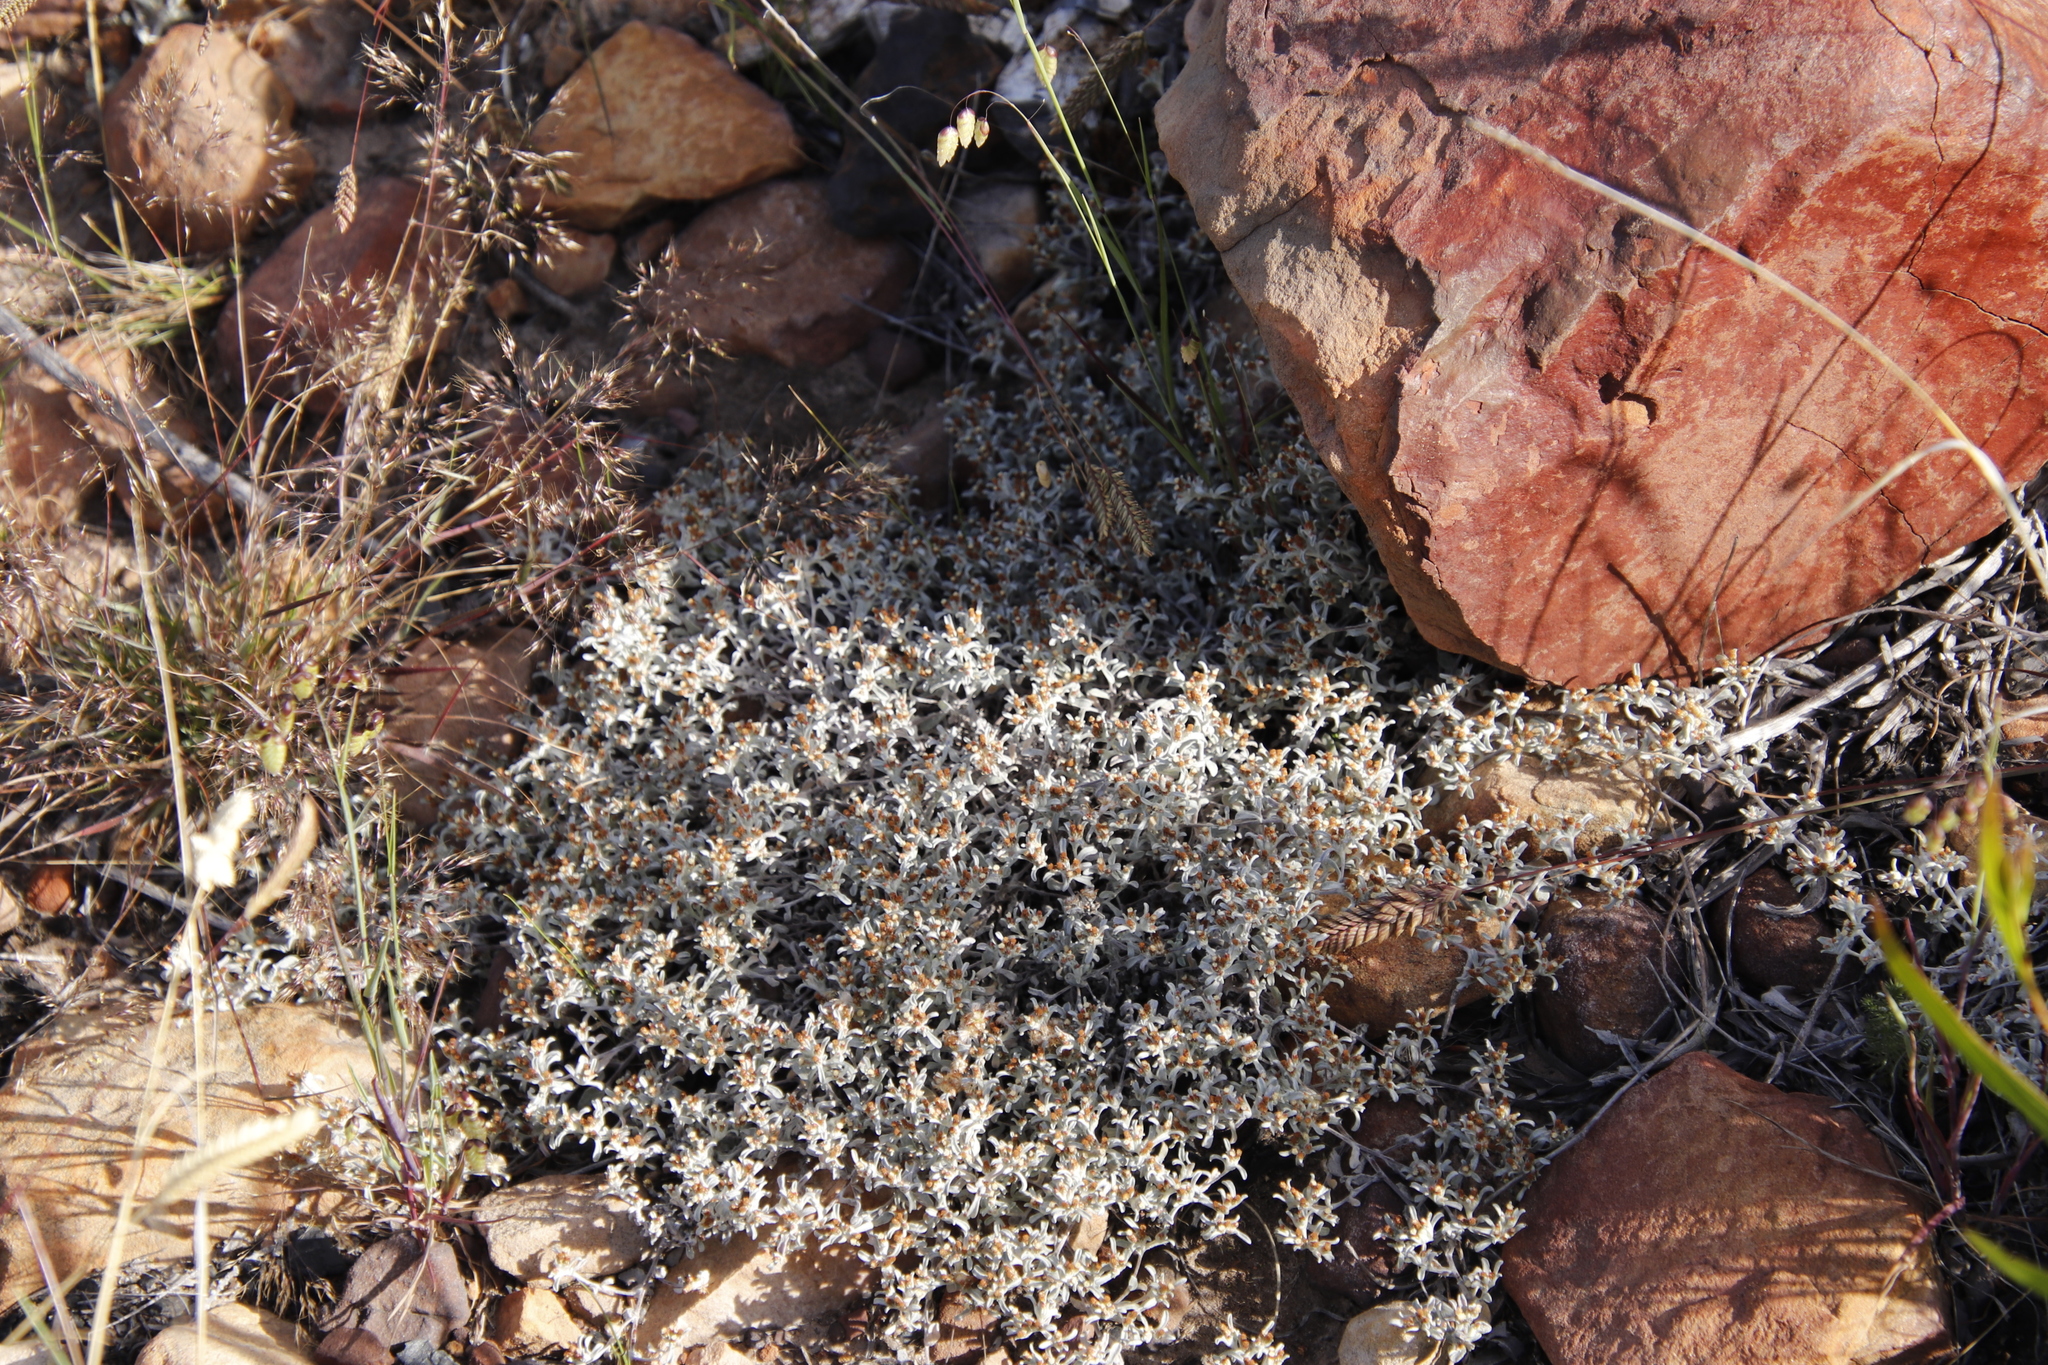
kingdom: Plantae
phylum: Tracheophyta
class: Magnoliopsida
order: Asterales
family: Asteraceae
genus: Helichrysum
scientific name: Helichrysum tinctum
